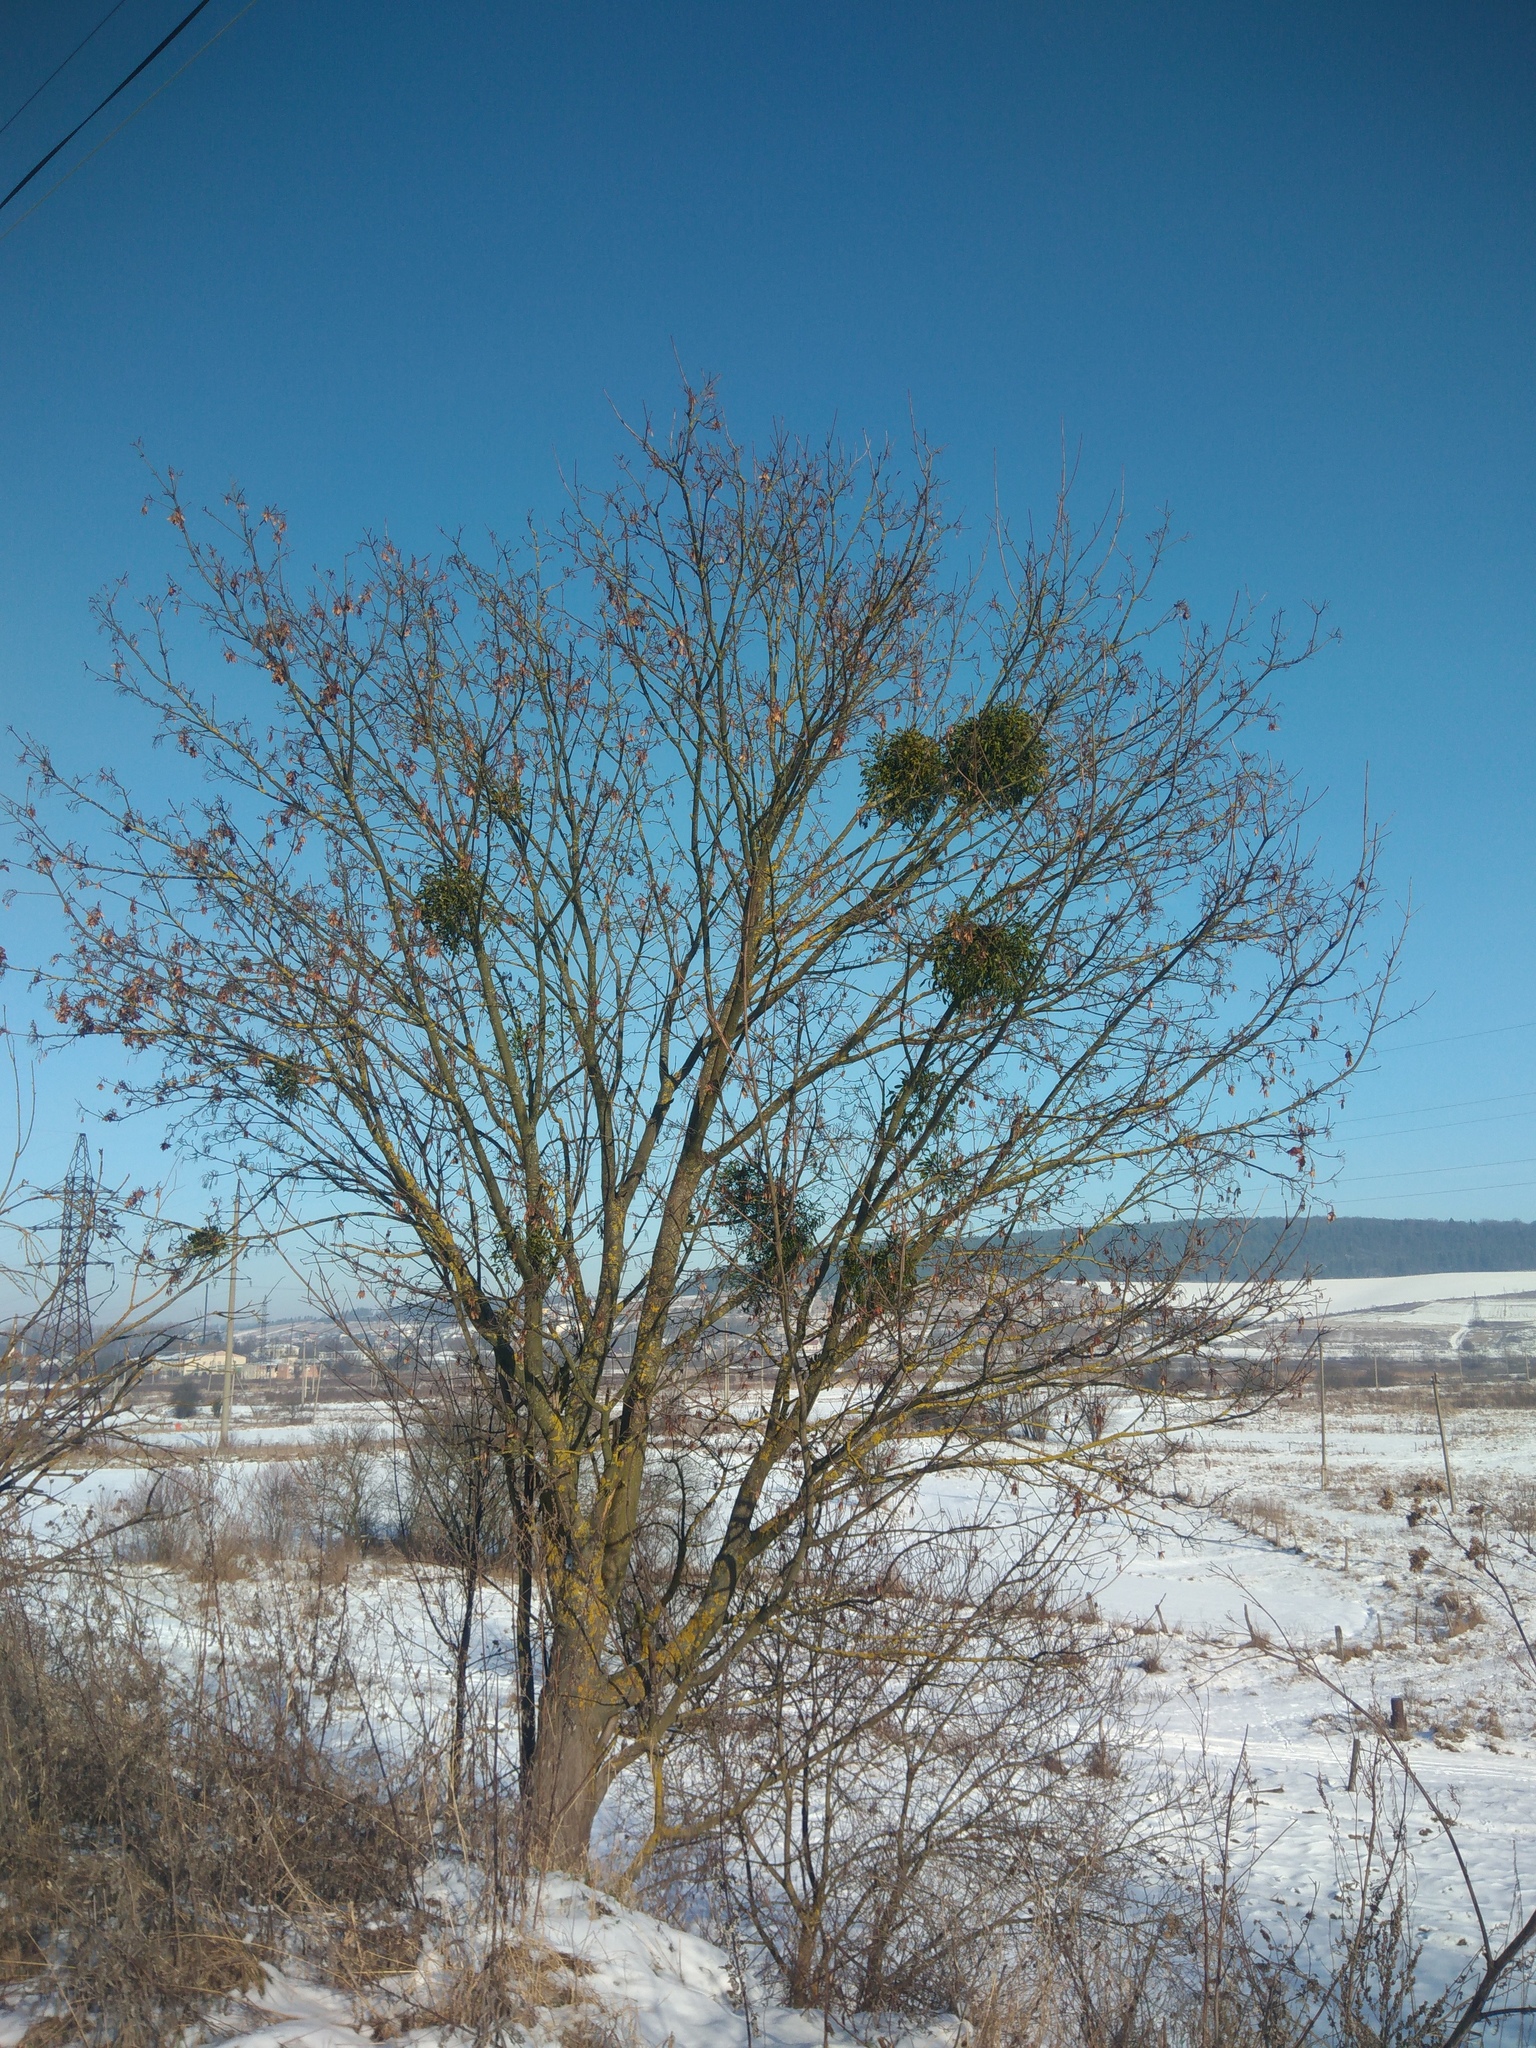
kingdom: Plantae
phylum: Tracheophyta
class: Magnoliopsida
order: Santalales
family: Viscaceae
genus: Viscum
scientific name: Viscum album
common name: Mistletoe
